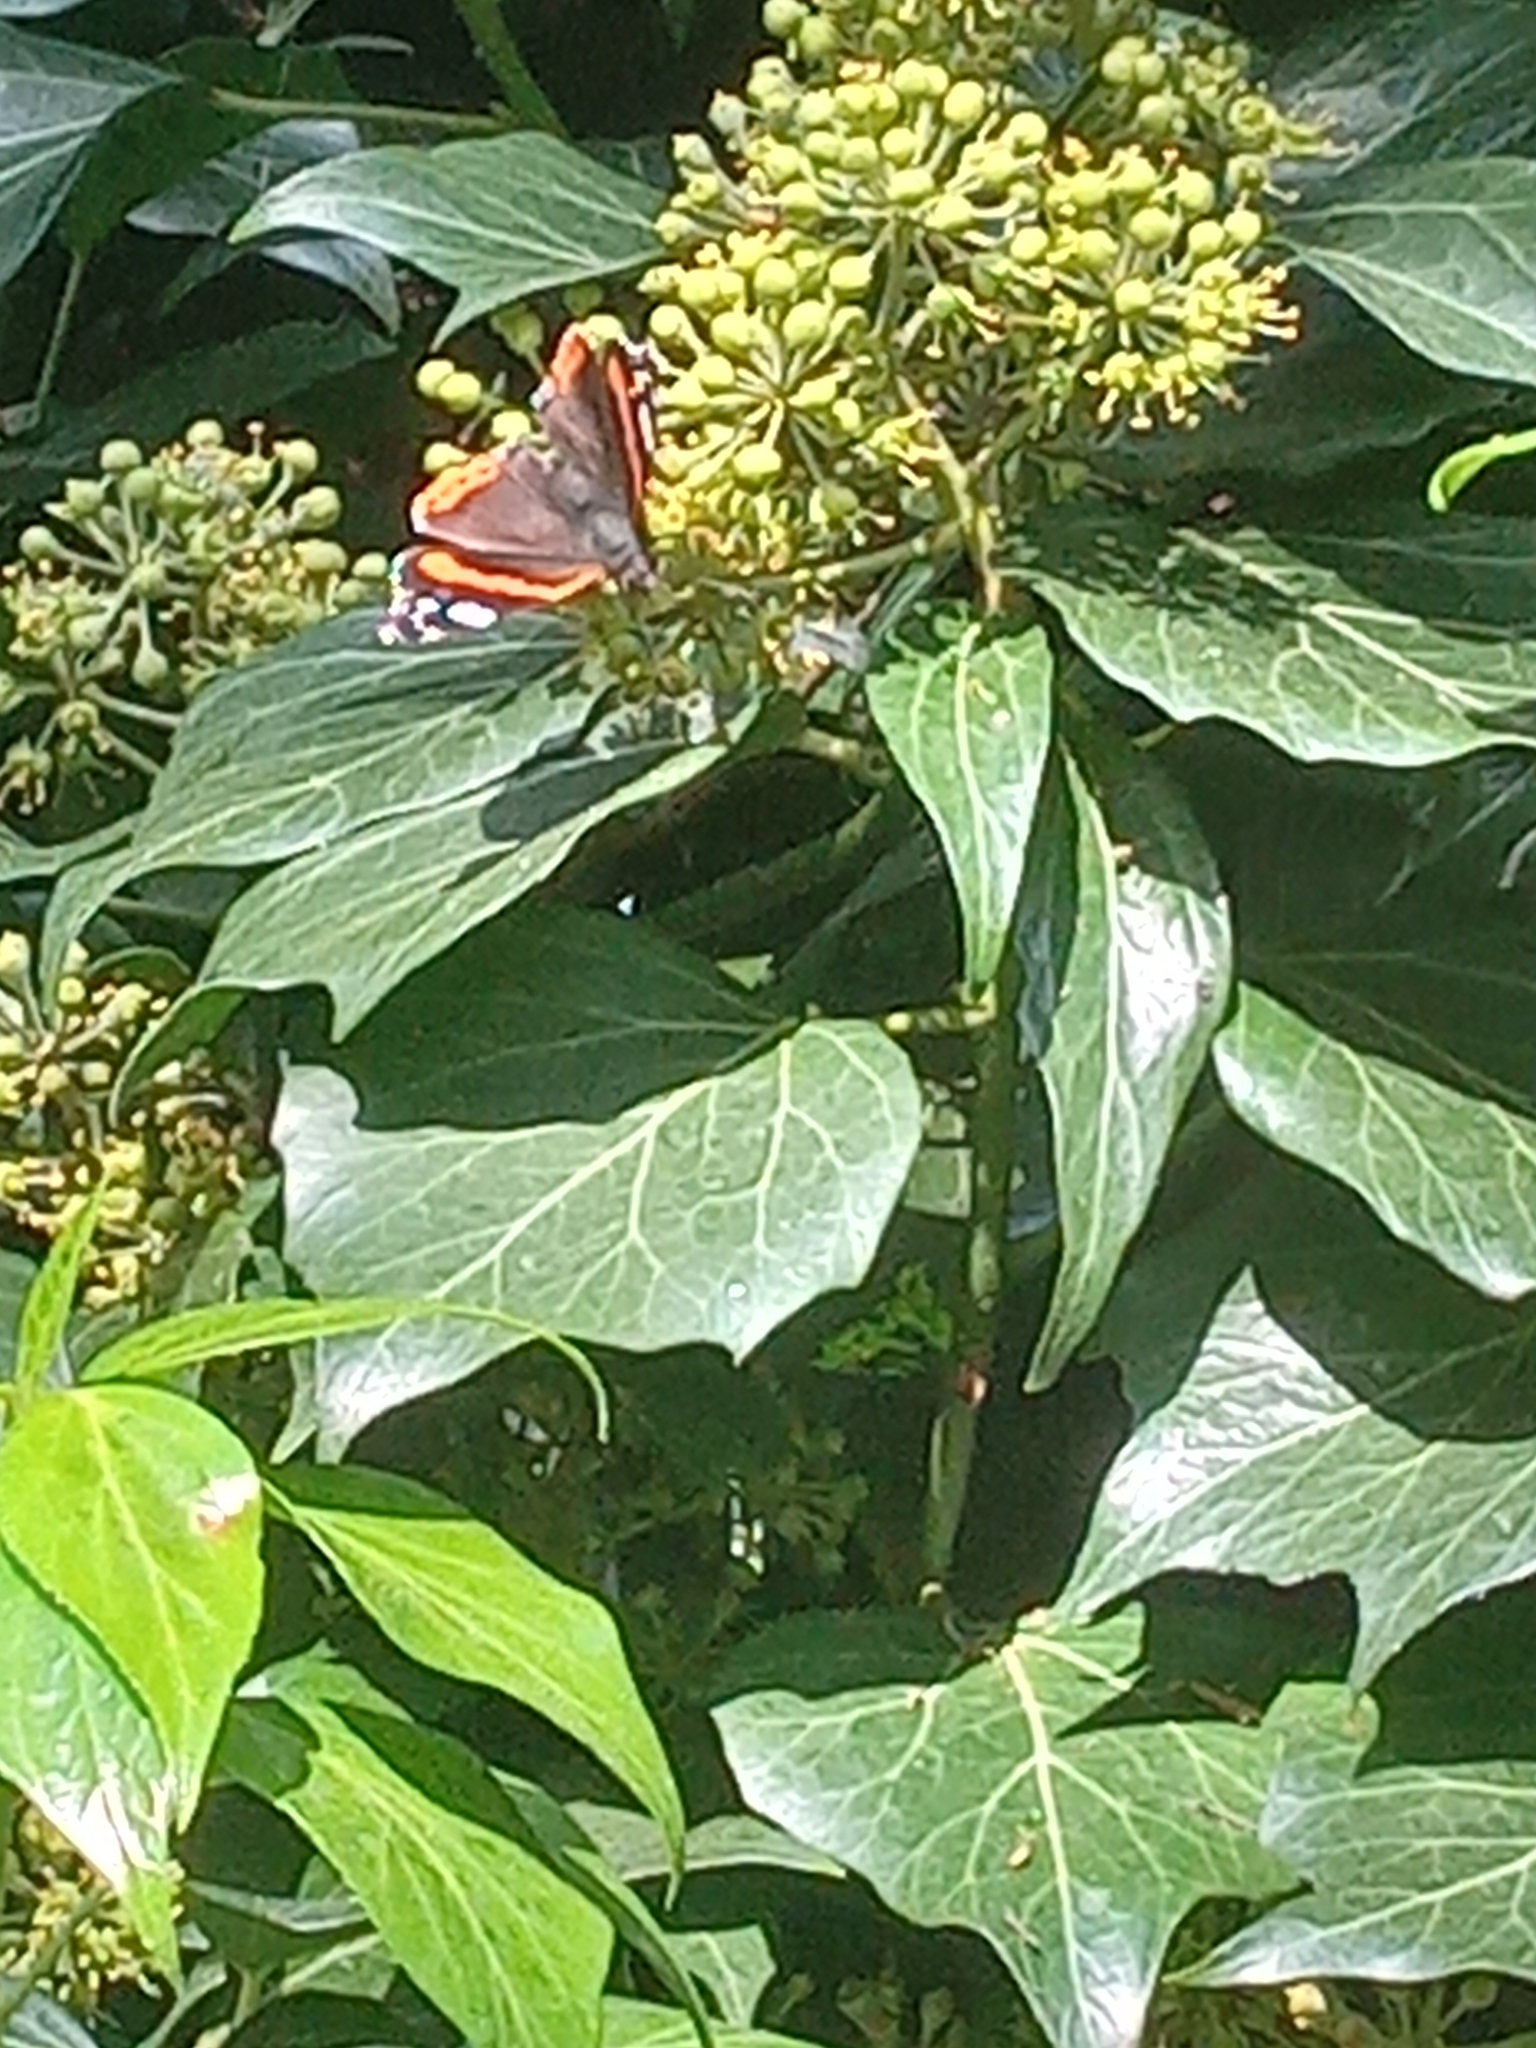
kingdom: Animalia
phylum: Arthropoda
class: Insecta
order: Lepidoptera
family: Nymphalidae
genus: Vanessa
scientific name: Vanessa atalanta
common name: Red admiral
